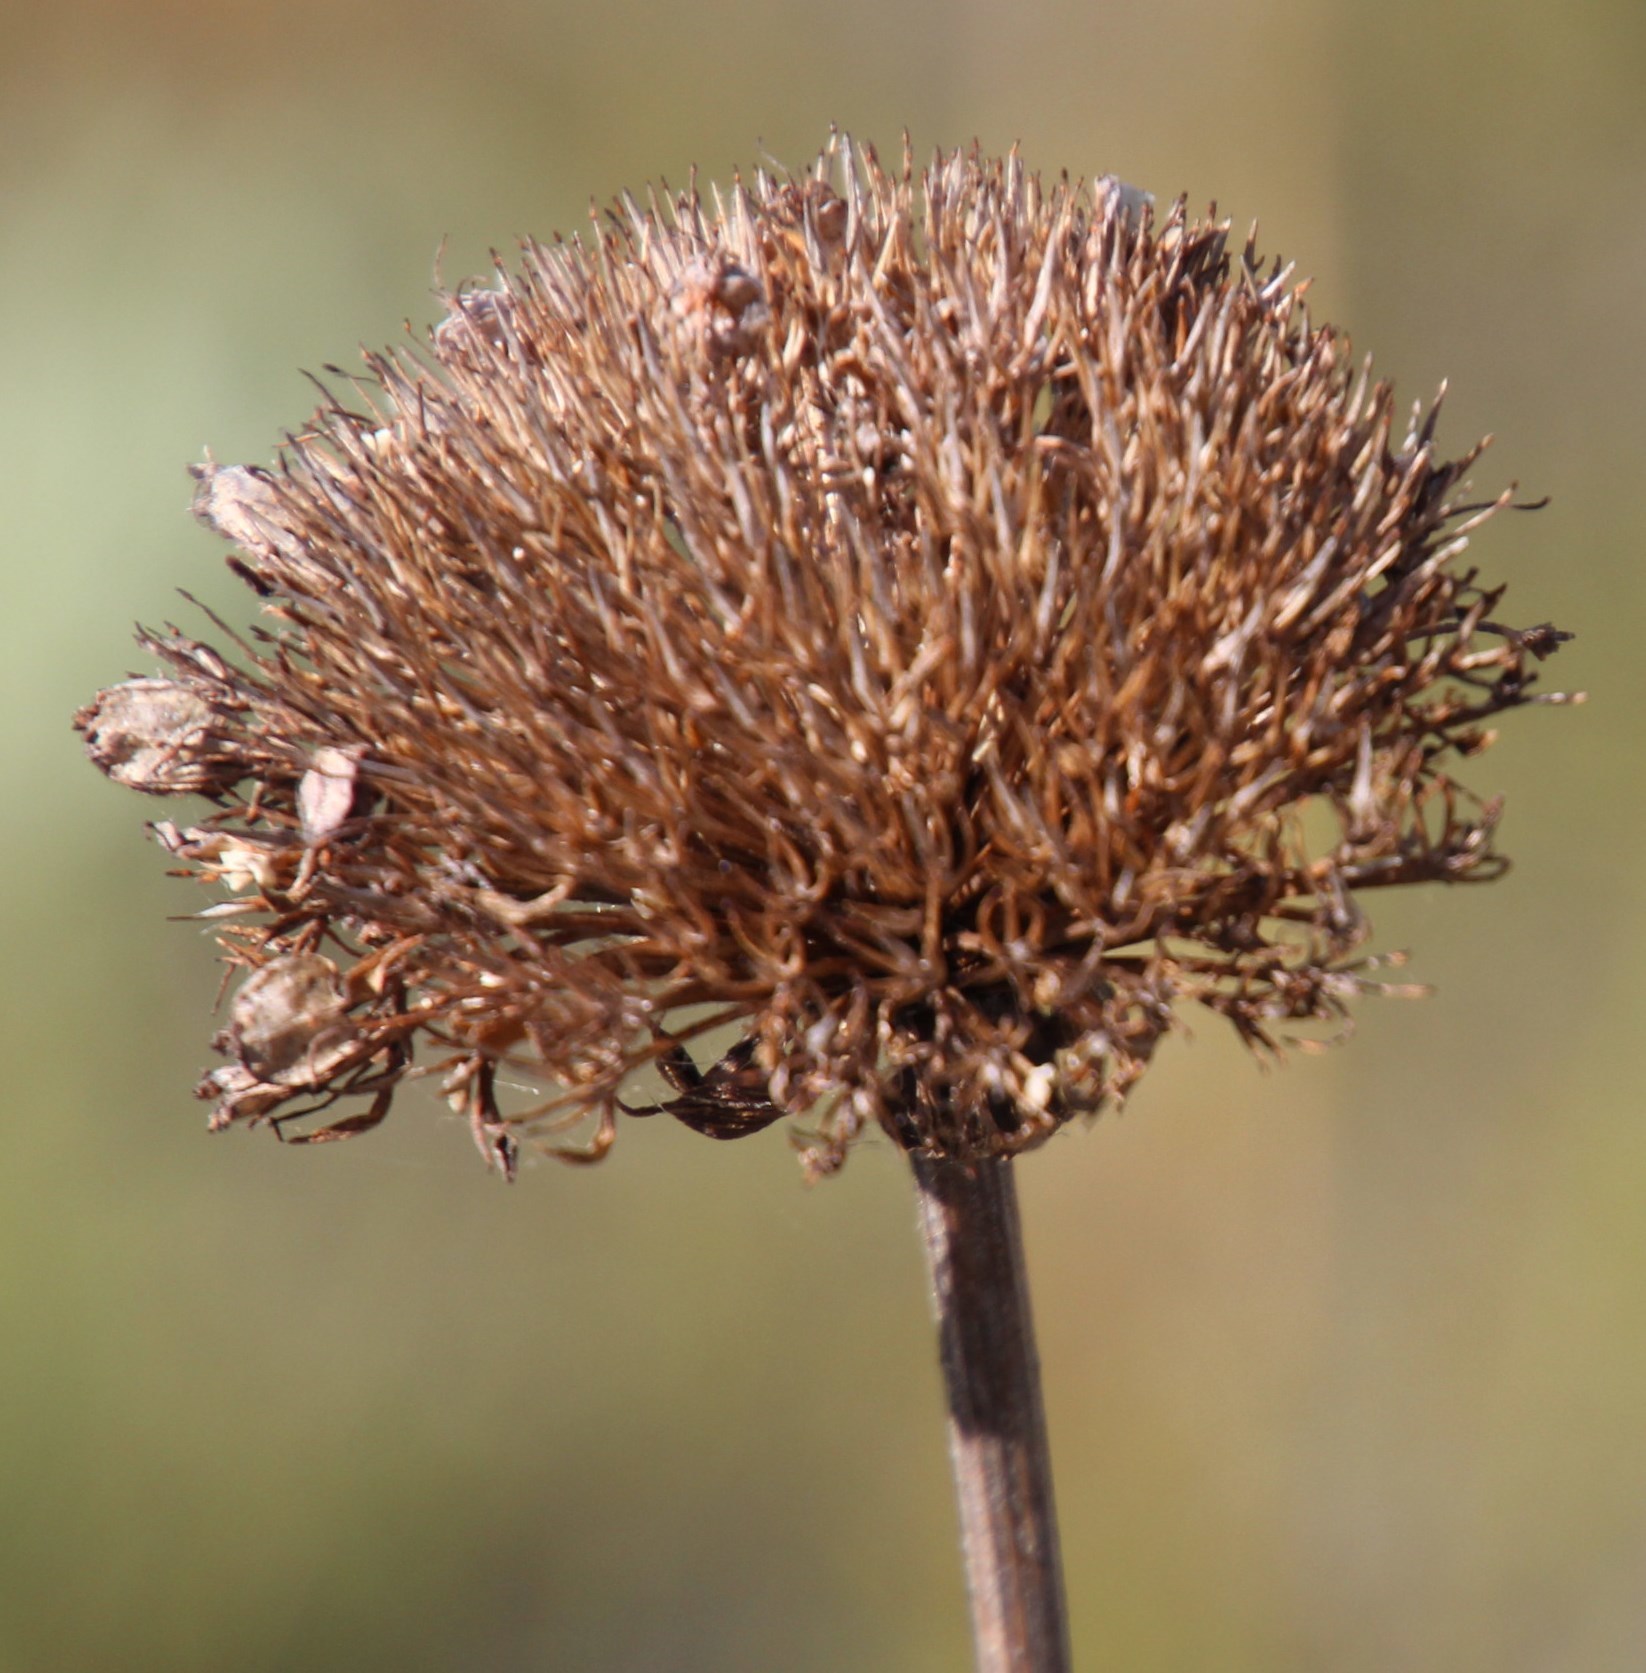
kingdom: Plantae
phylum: Tracheophyta
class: Magnoliopsida
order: Apiales
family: Apiaceae
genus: Hermas
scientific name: Hermas villosa
